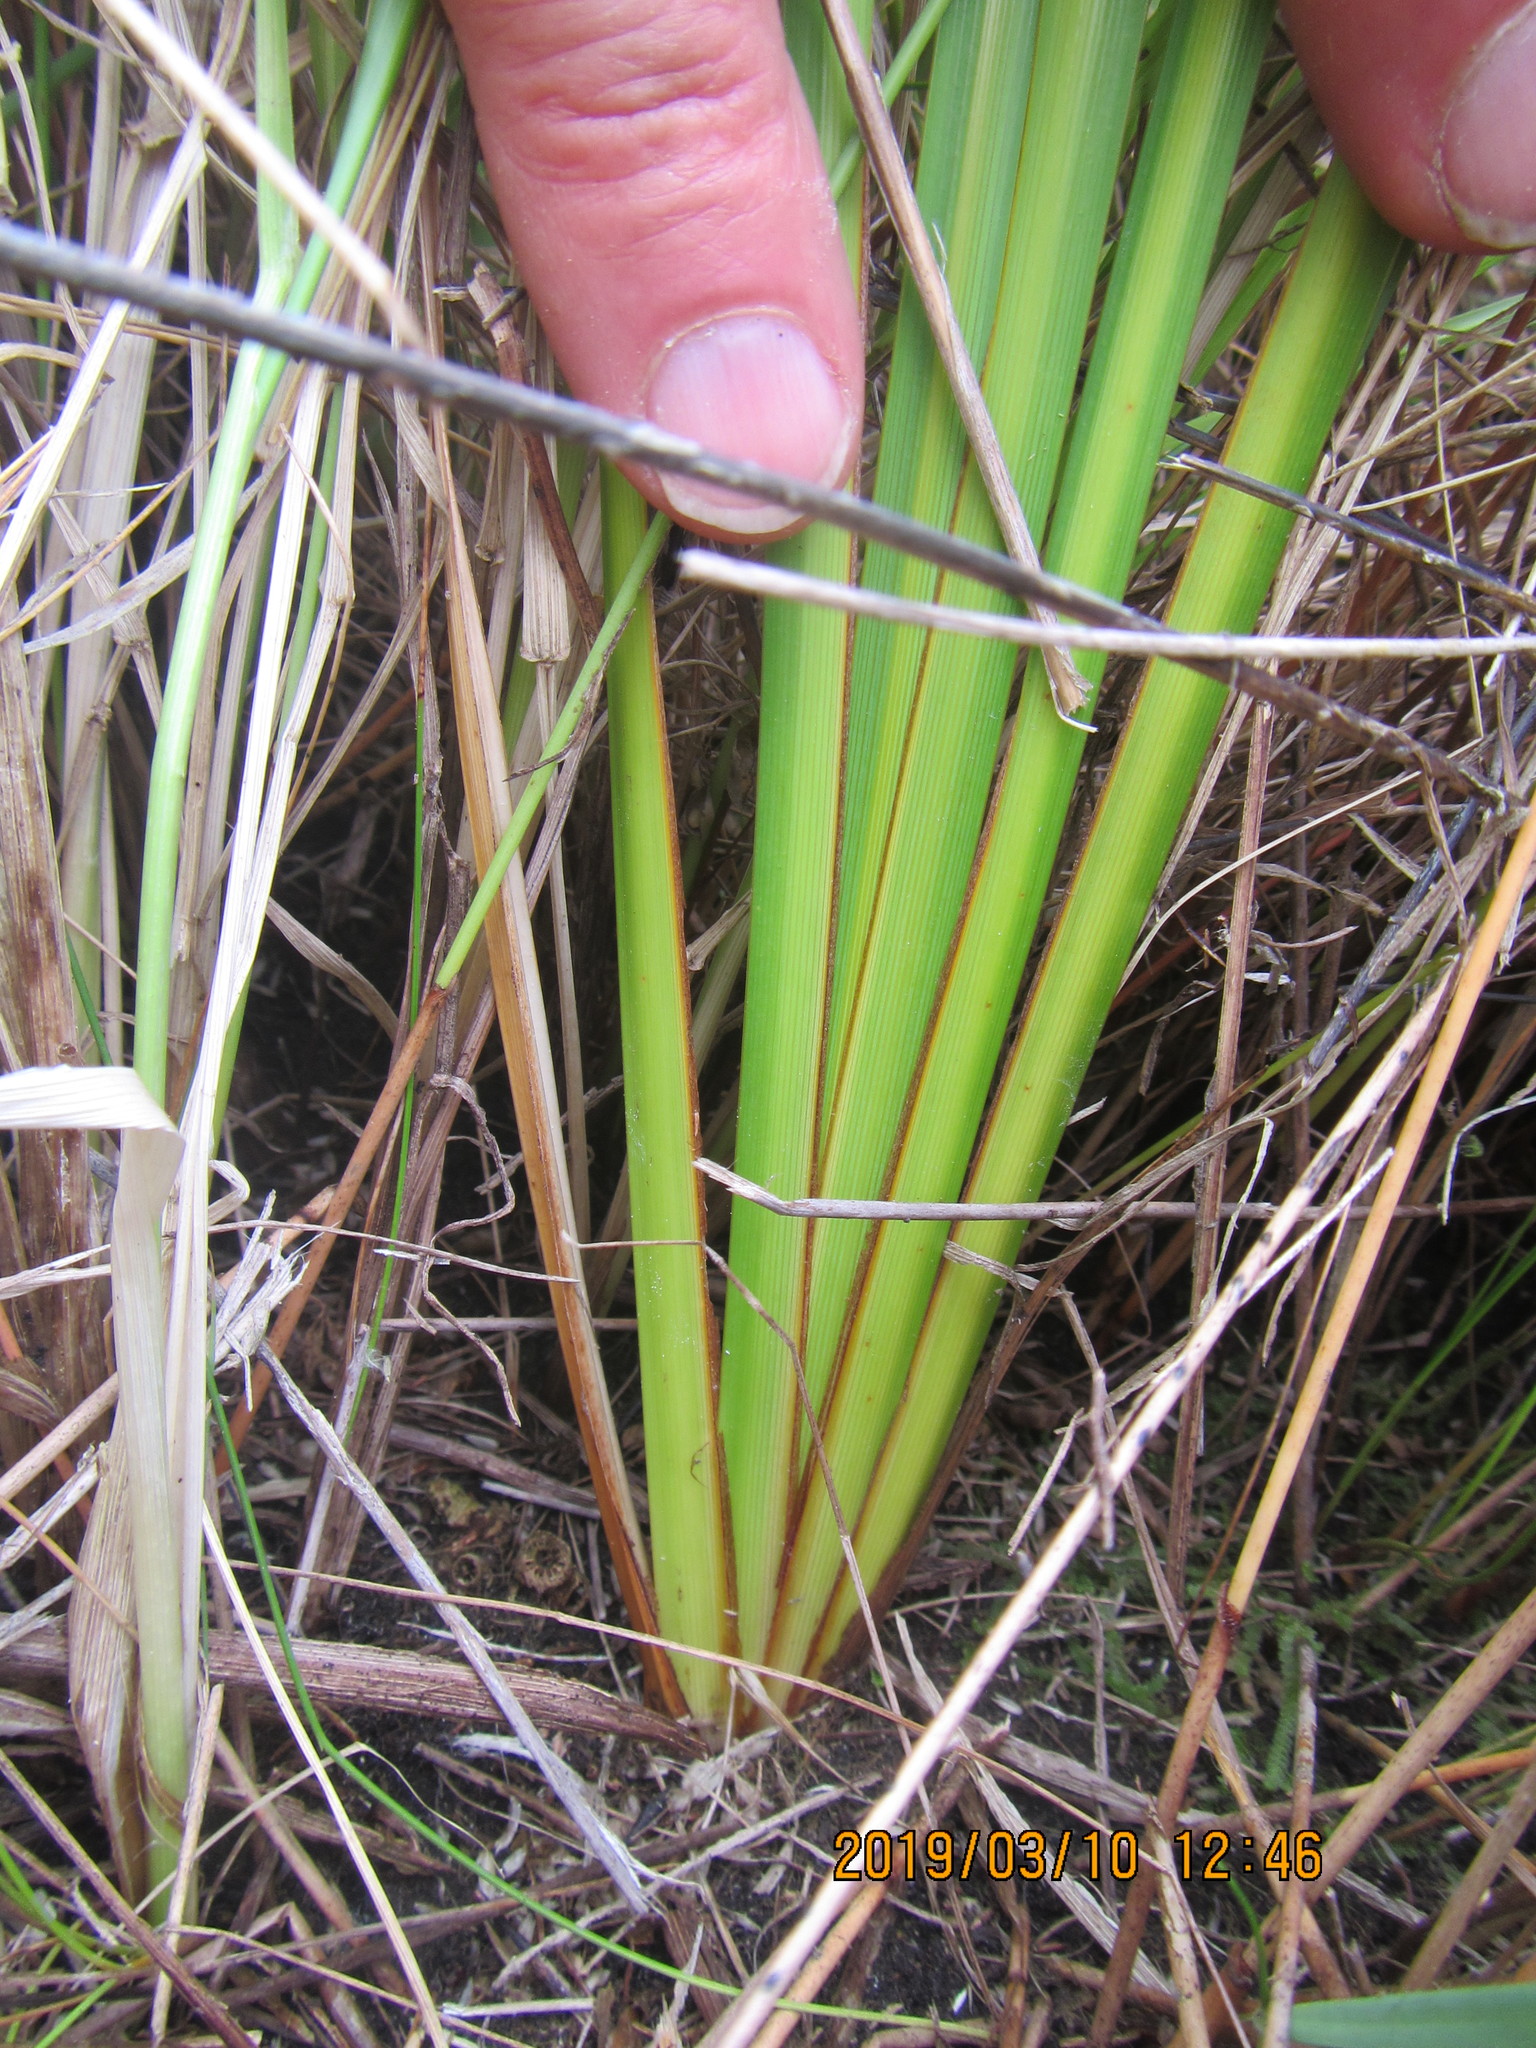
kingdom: Plantae
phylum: Tracheophyta
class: Liliopsida
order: Asparagales
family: Iridaceae
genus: Libertia
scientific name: Libertia peregrinans
